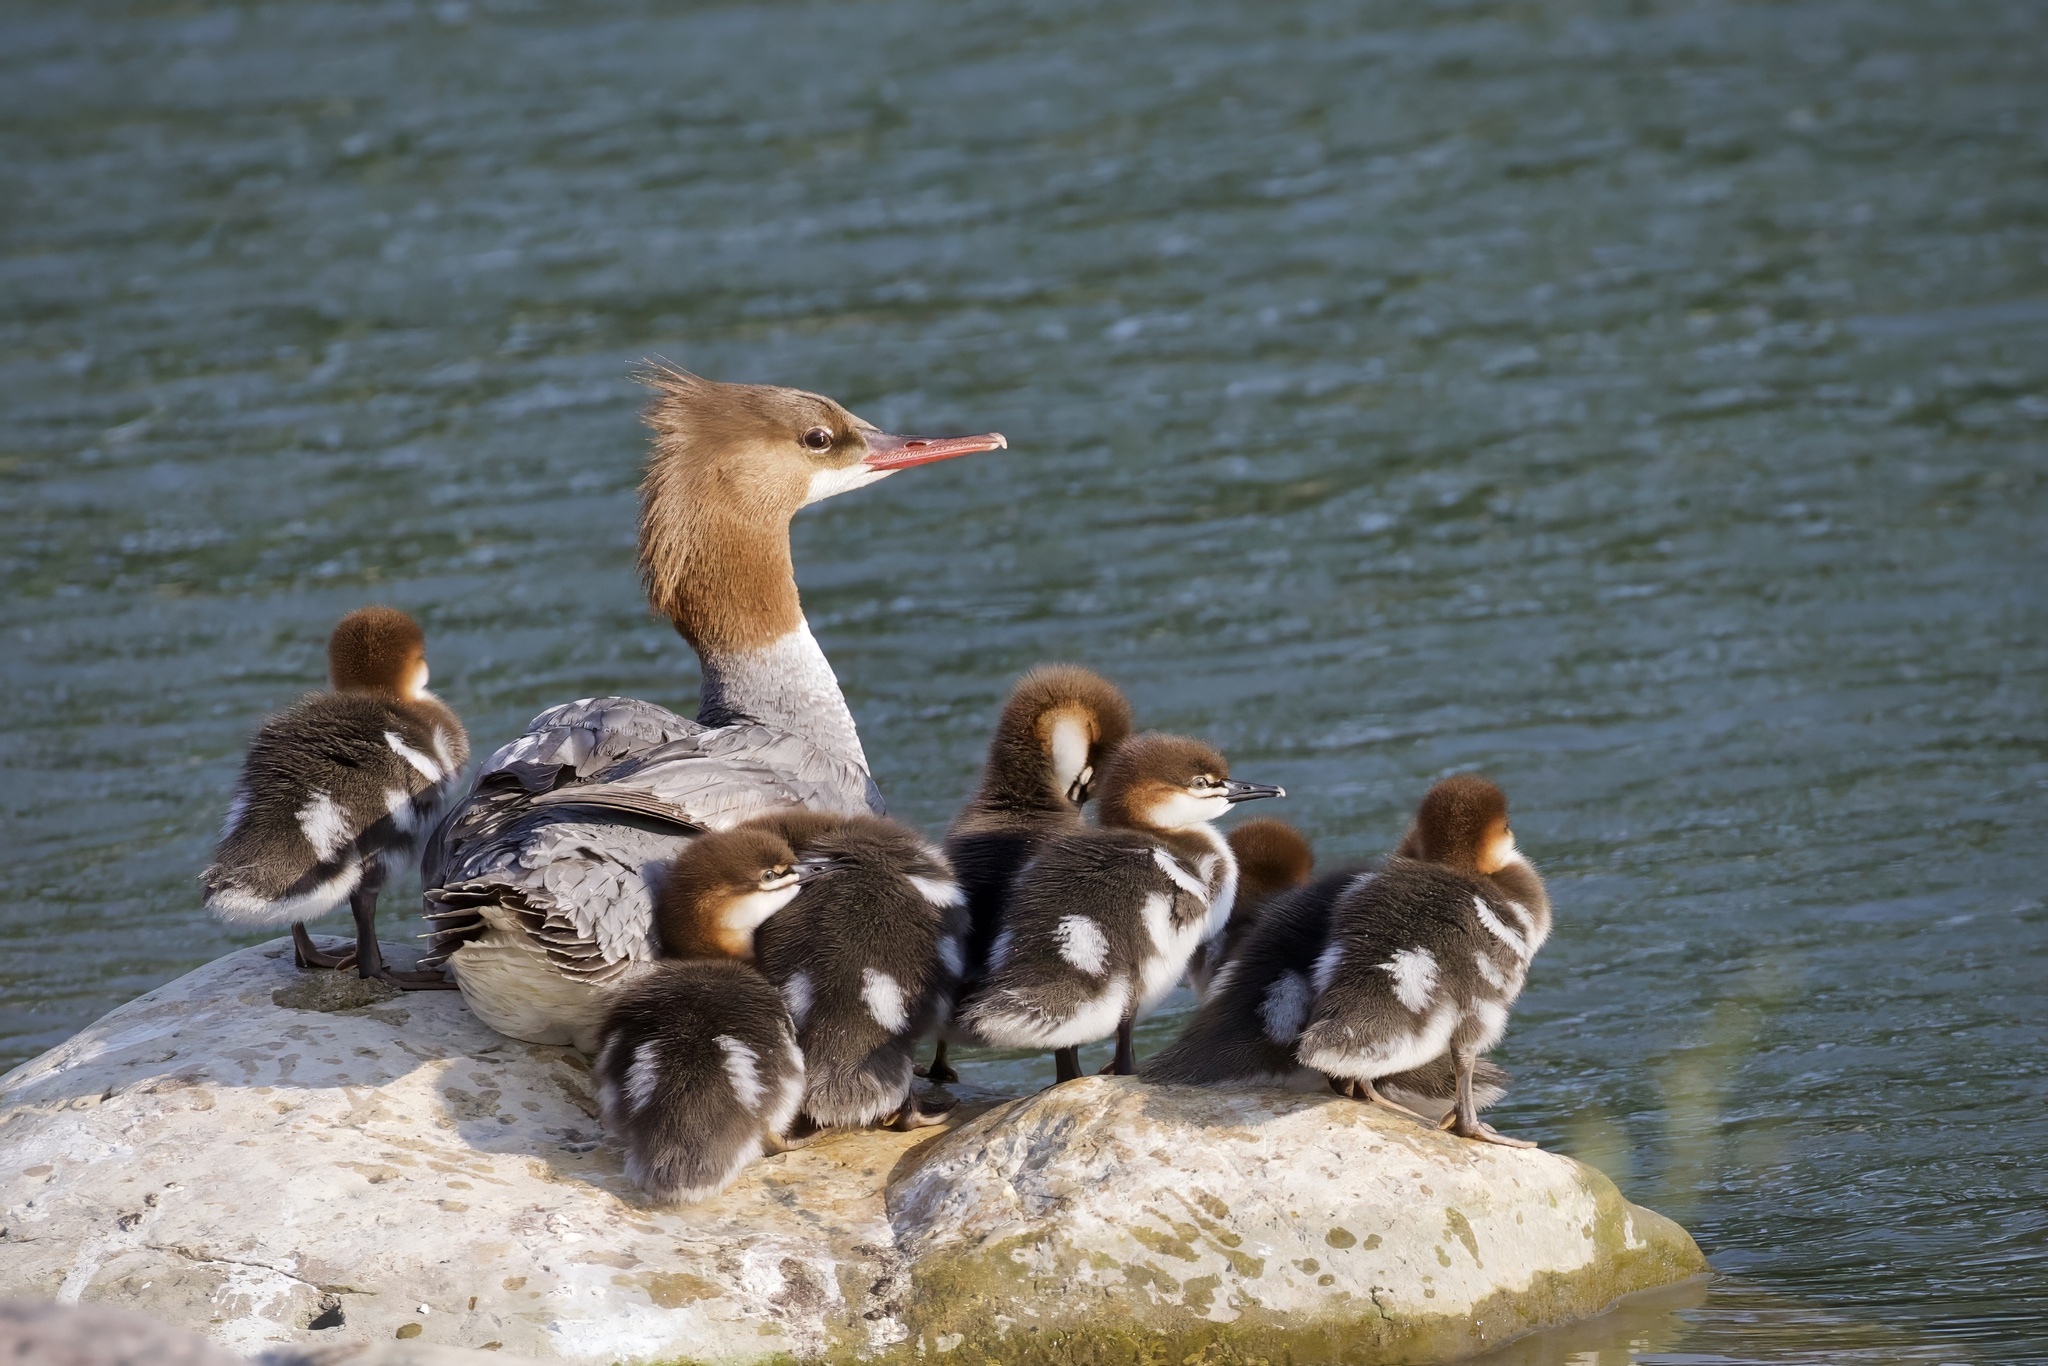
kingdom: Animalia
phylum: Chordata
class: Aves
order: Anseriformes
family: Anatidae
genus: Mergus
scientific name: Mergus merganser
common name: Common merganser
